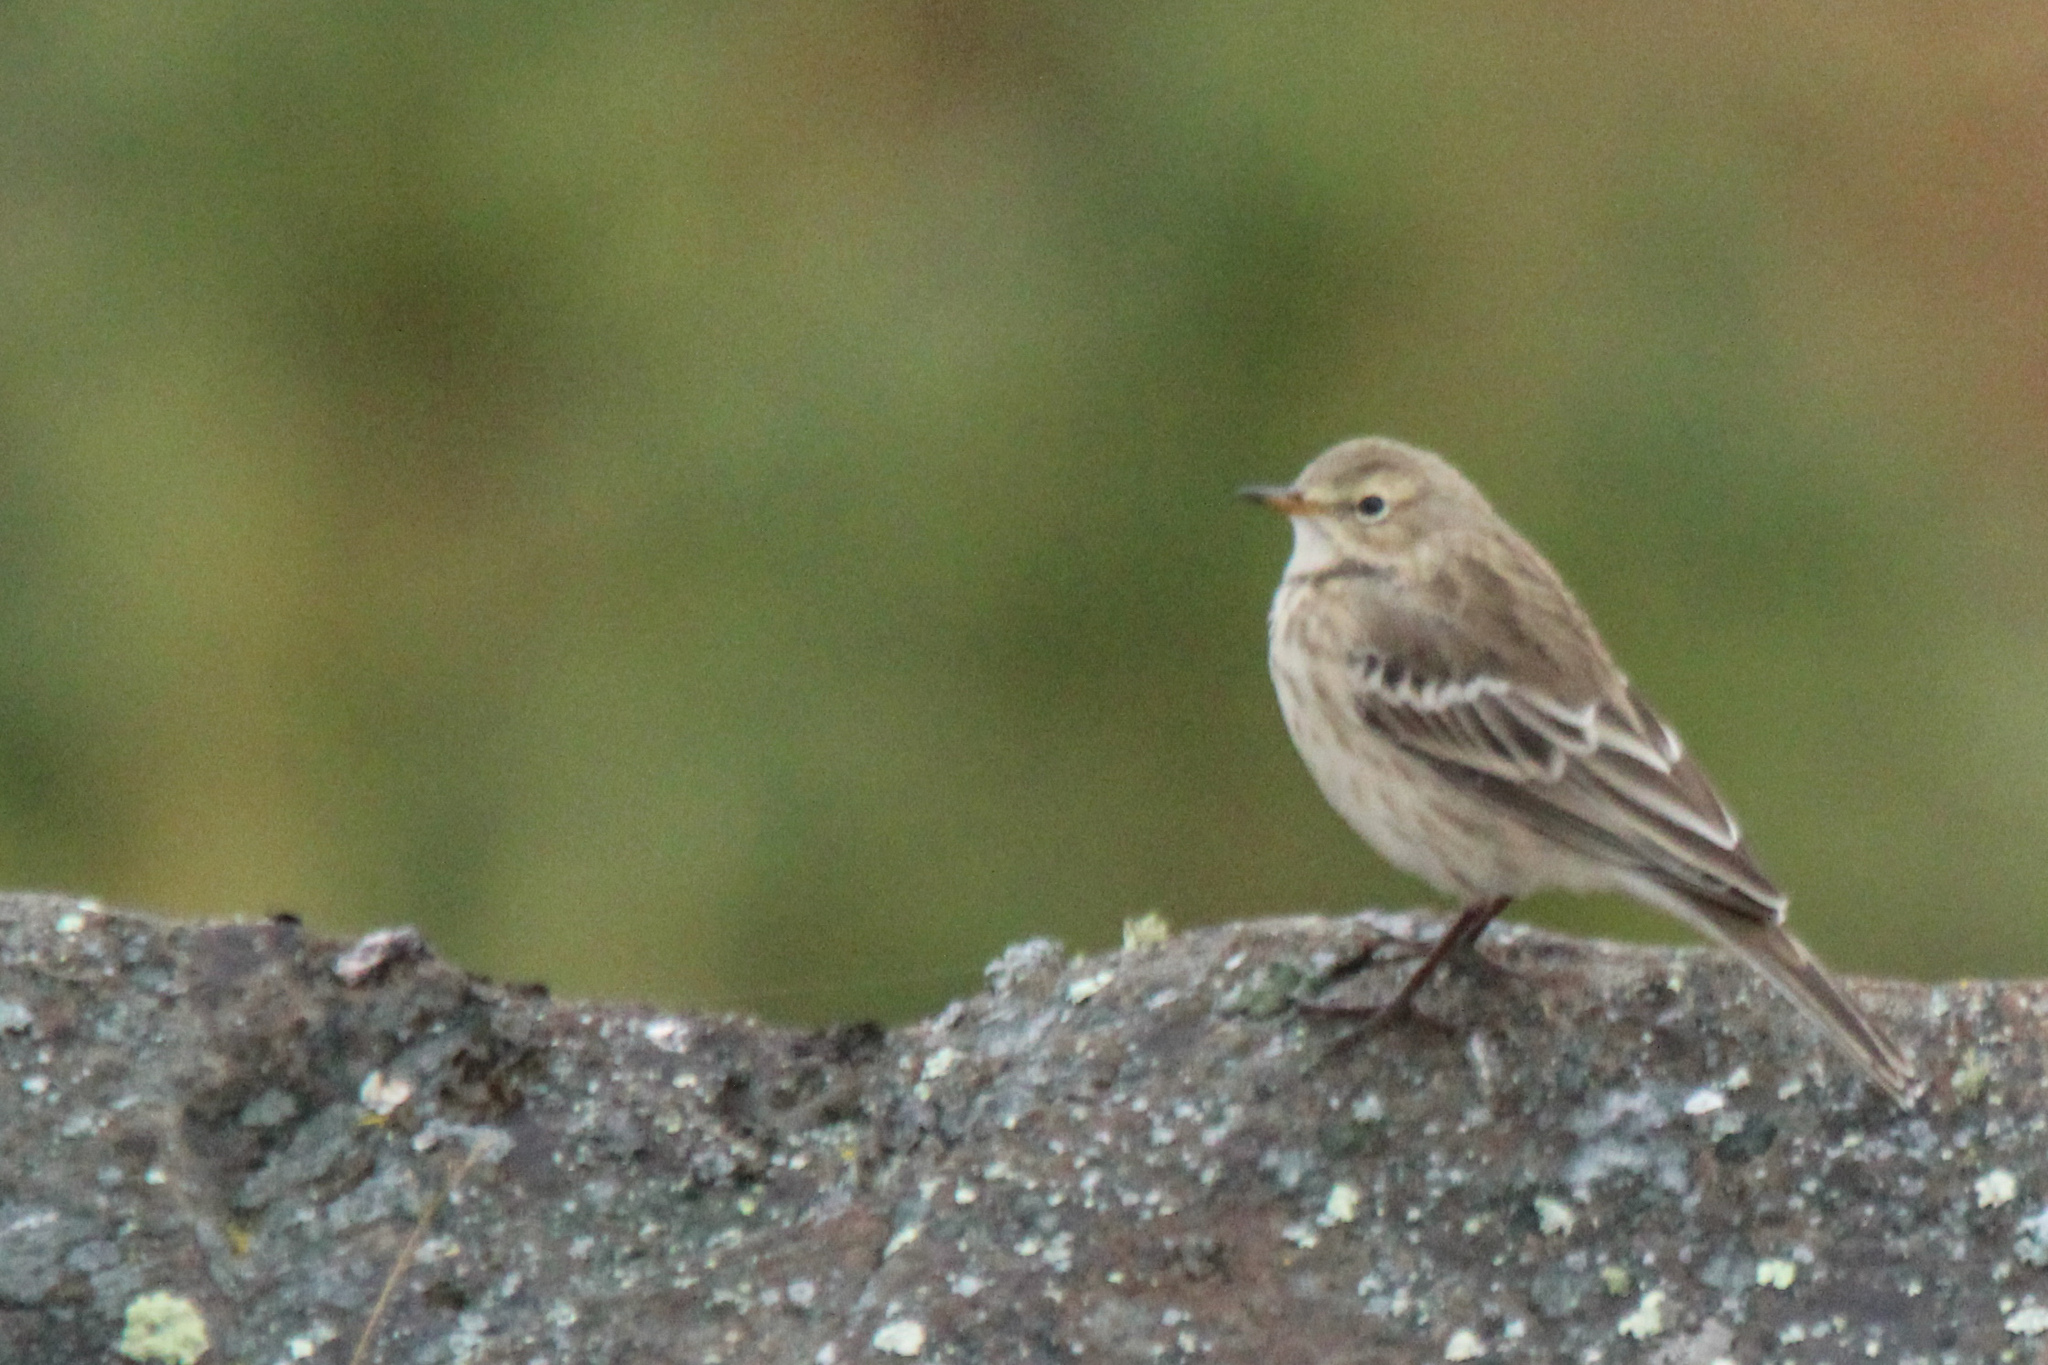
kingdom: Animalia
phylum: Chordata
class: Aves
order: Passeriformes
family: Motacillidae
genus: Anthus
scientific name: Anthus spinoletta
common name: Water pipit
